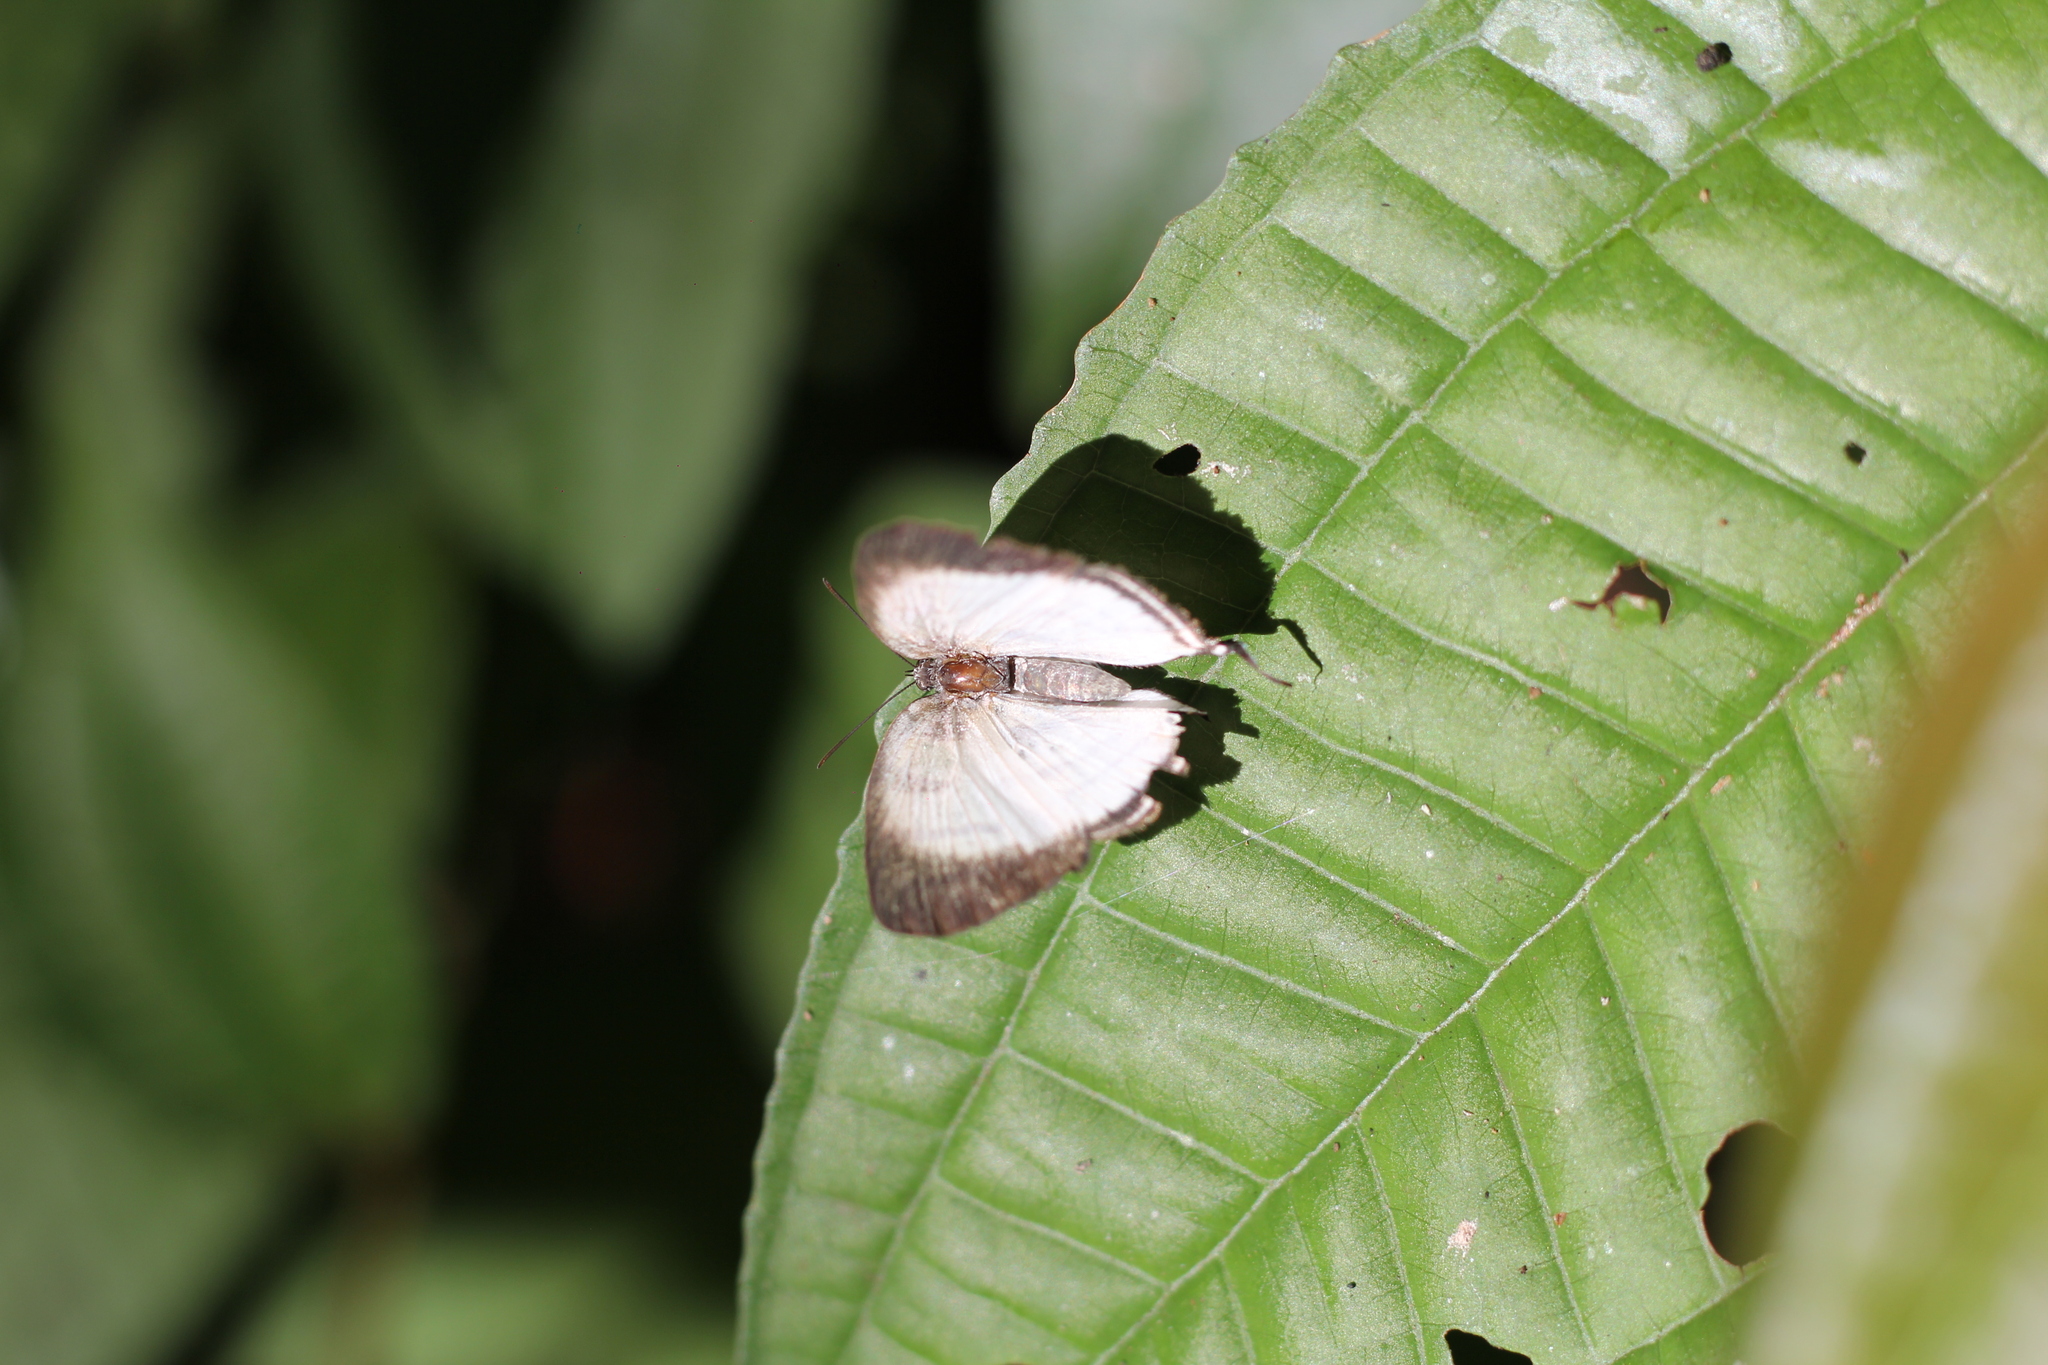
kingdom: Animalia
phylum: Arthropoda
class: Insecta
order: Lepidoptera
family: Lycaenidae
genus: Arawacus
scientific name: Arawacus separata
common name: Separated stripestreak
